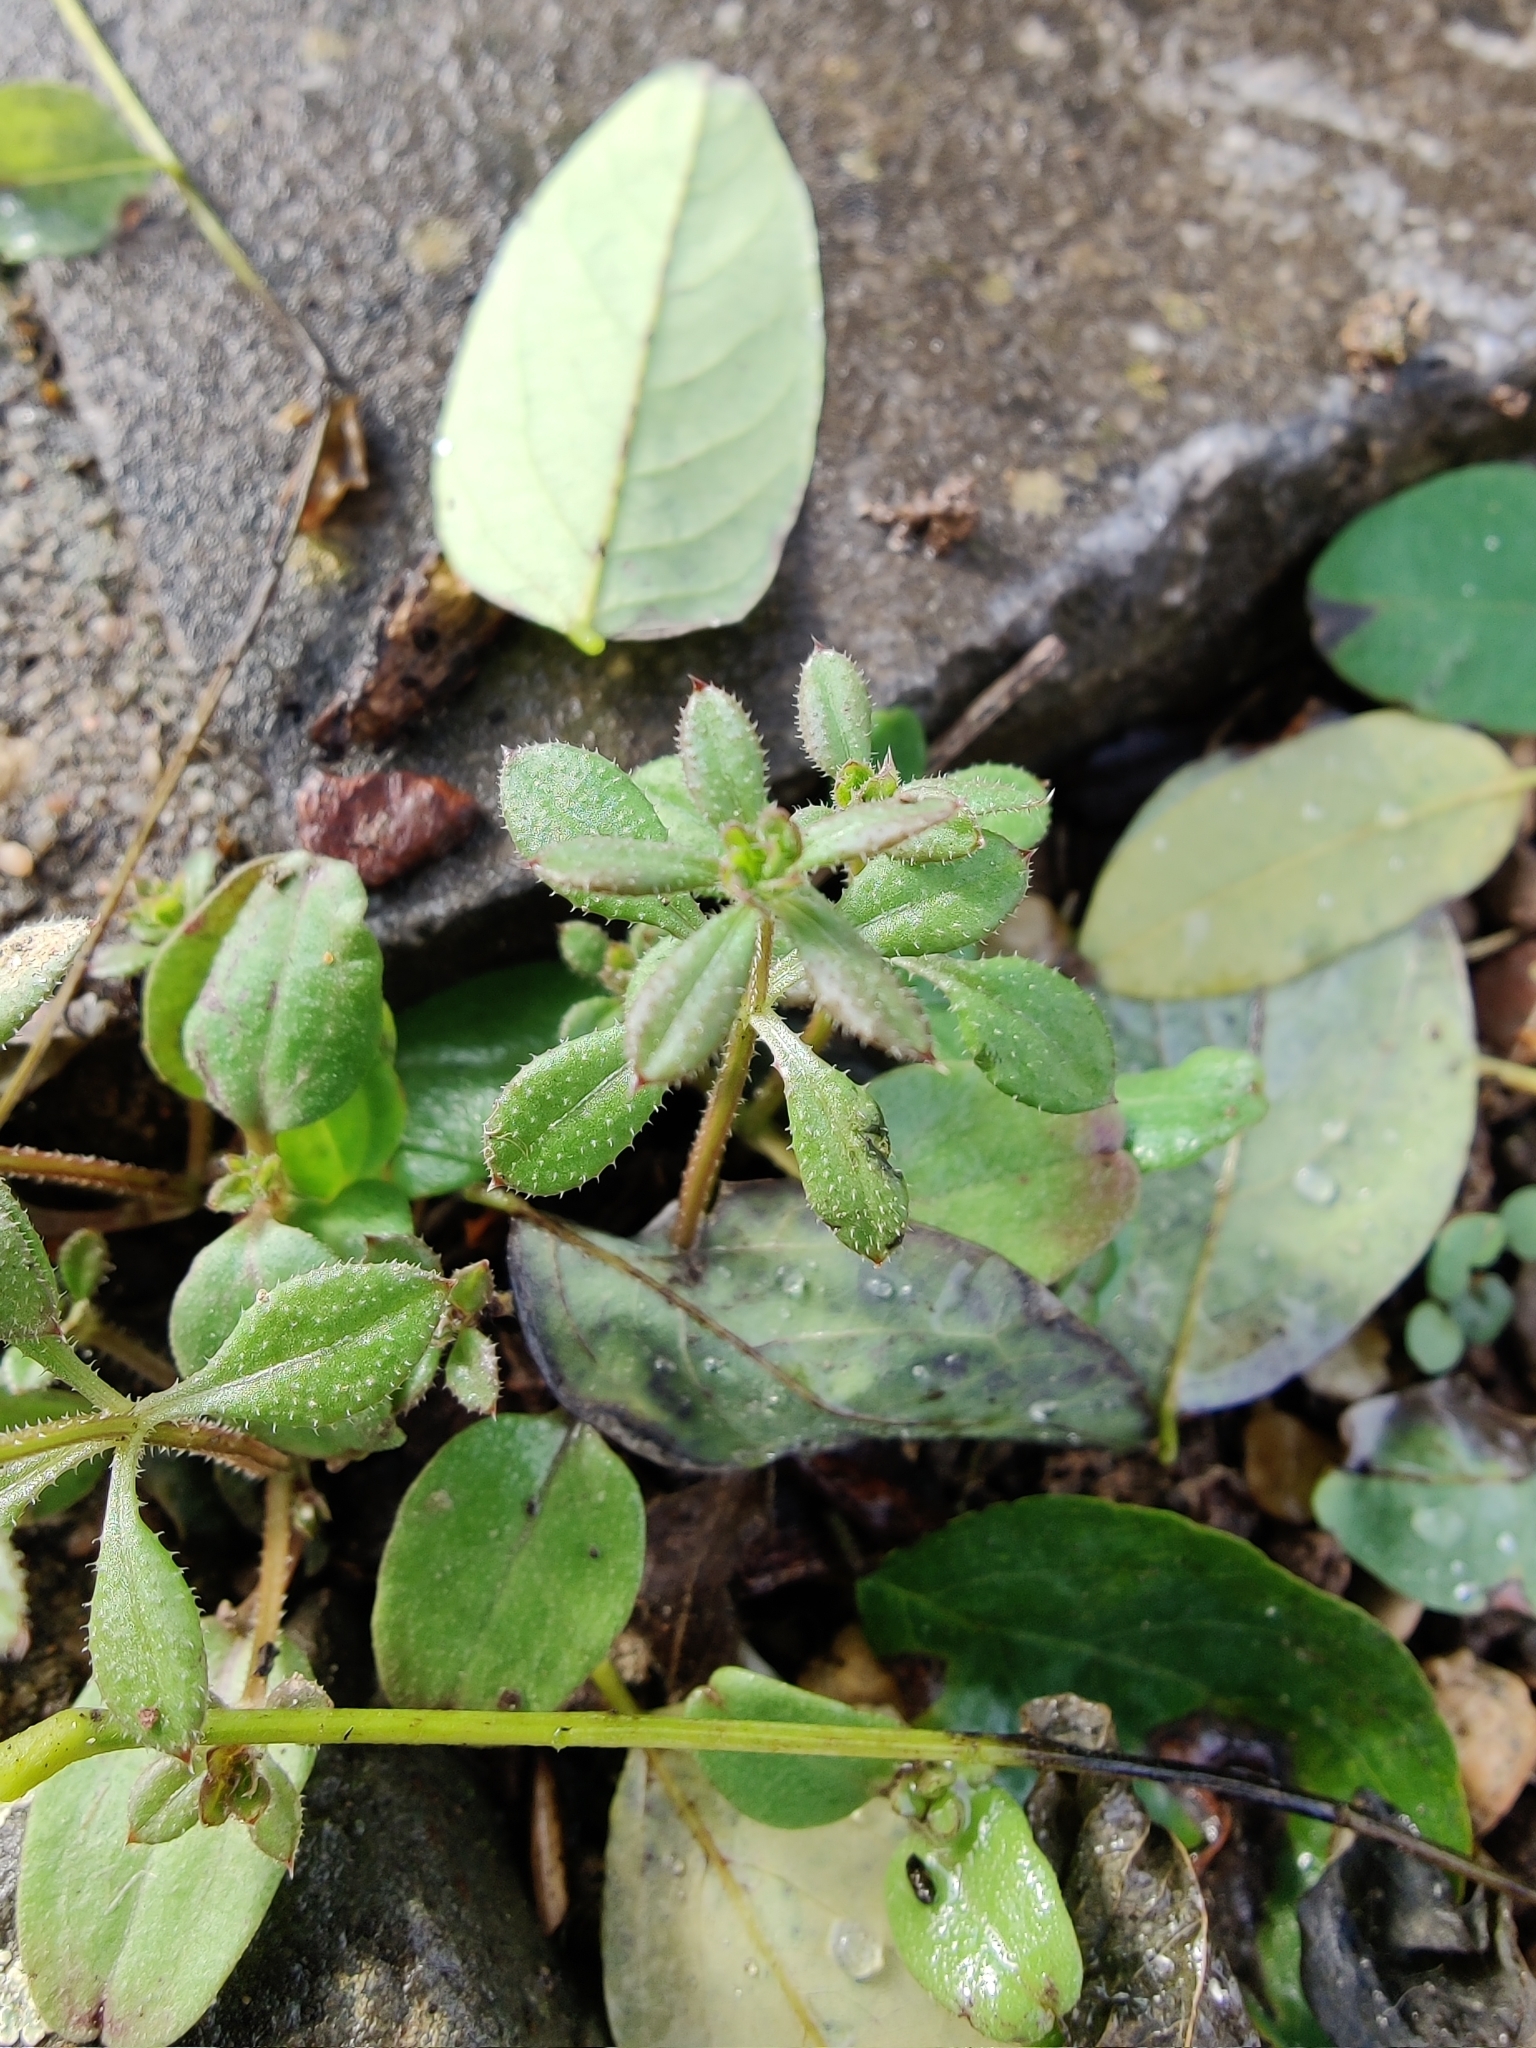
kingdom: Plantae
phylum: Tracheophyta
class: Magnoliopsida
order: Gentianales
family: Rubiaceae
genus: Galium
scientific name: Galium aparine
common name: Cleavers
